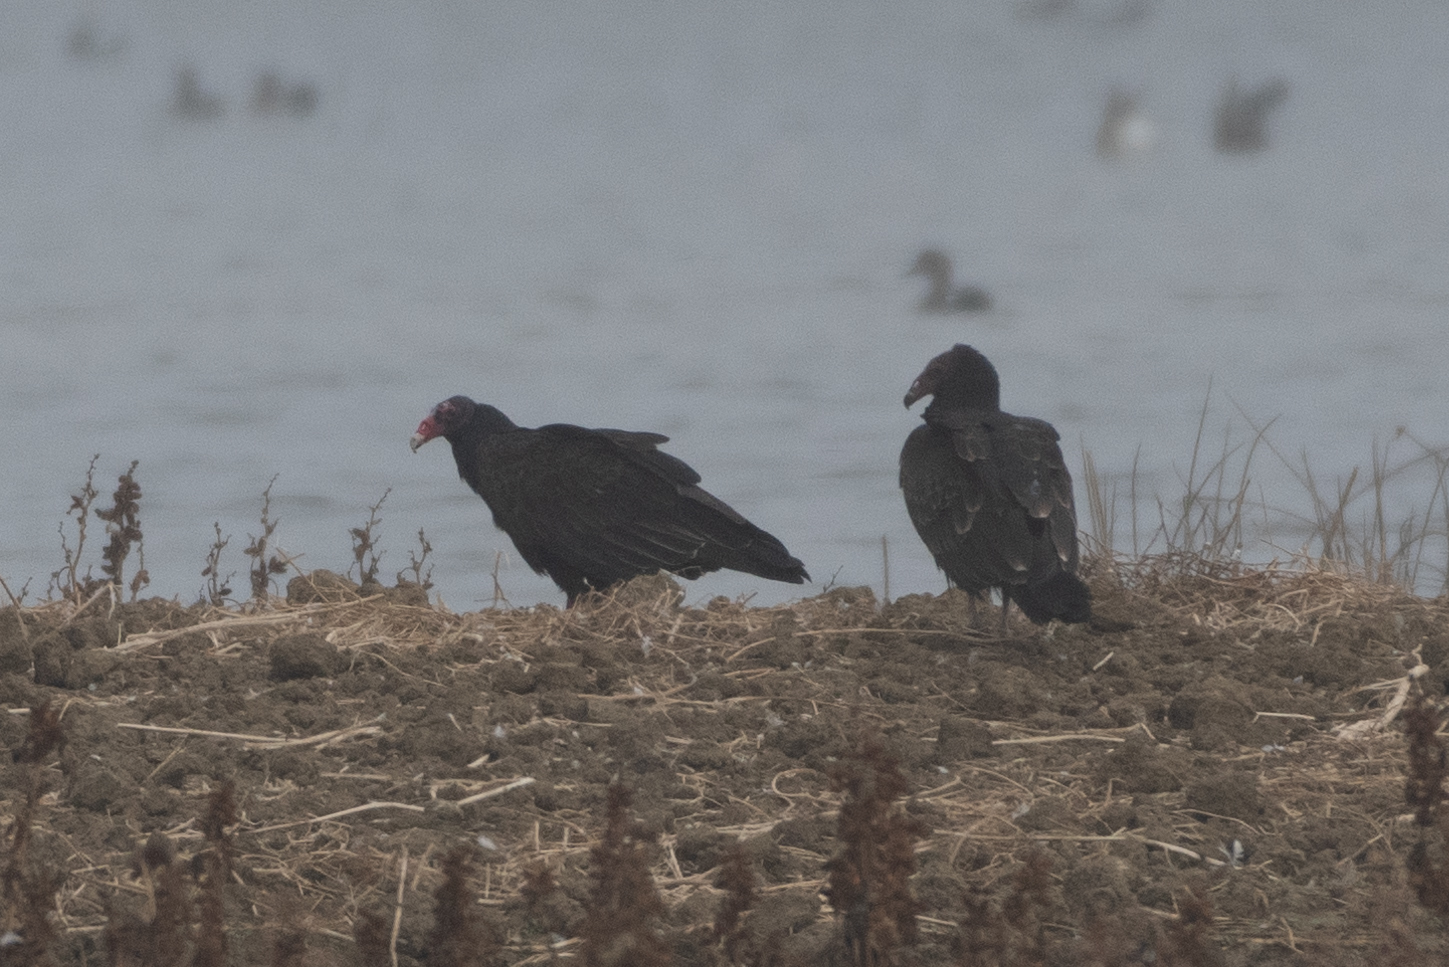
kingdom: Animalia
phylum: Chordata
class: Aves
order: Accipitriformes
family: Cathartidae
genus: Cathartes
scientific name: Cathartes aura
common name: Turkey vulture
